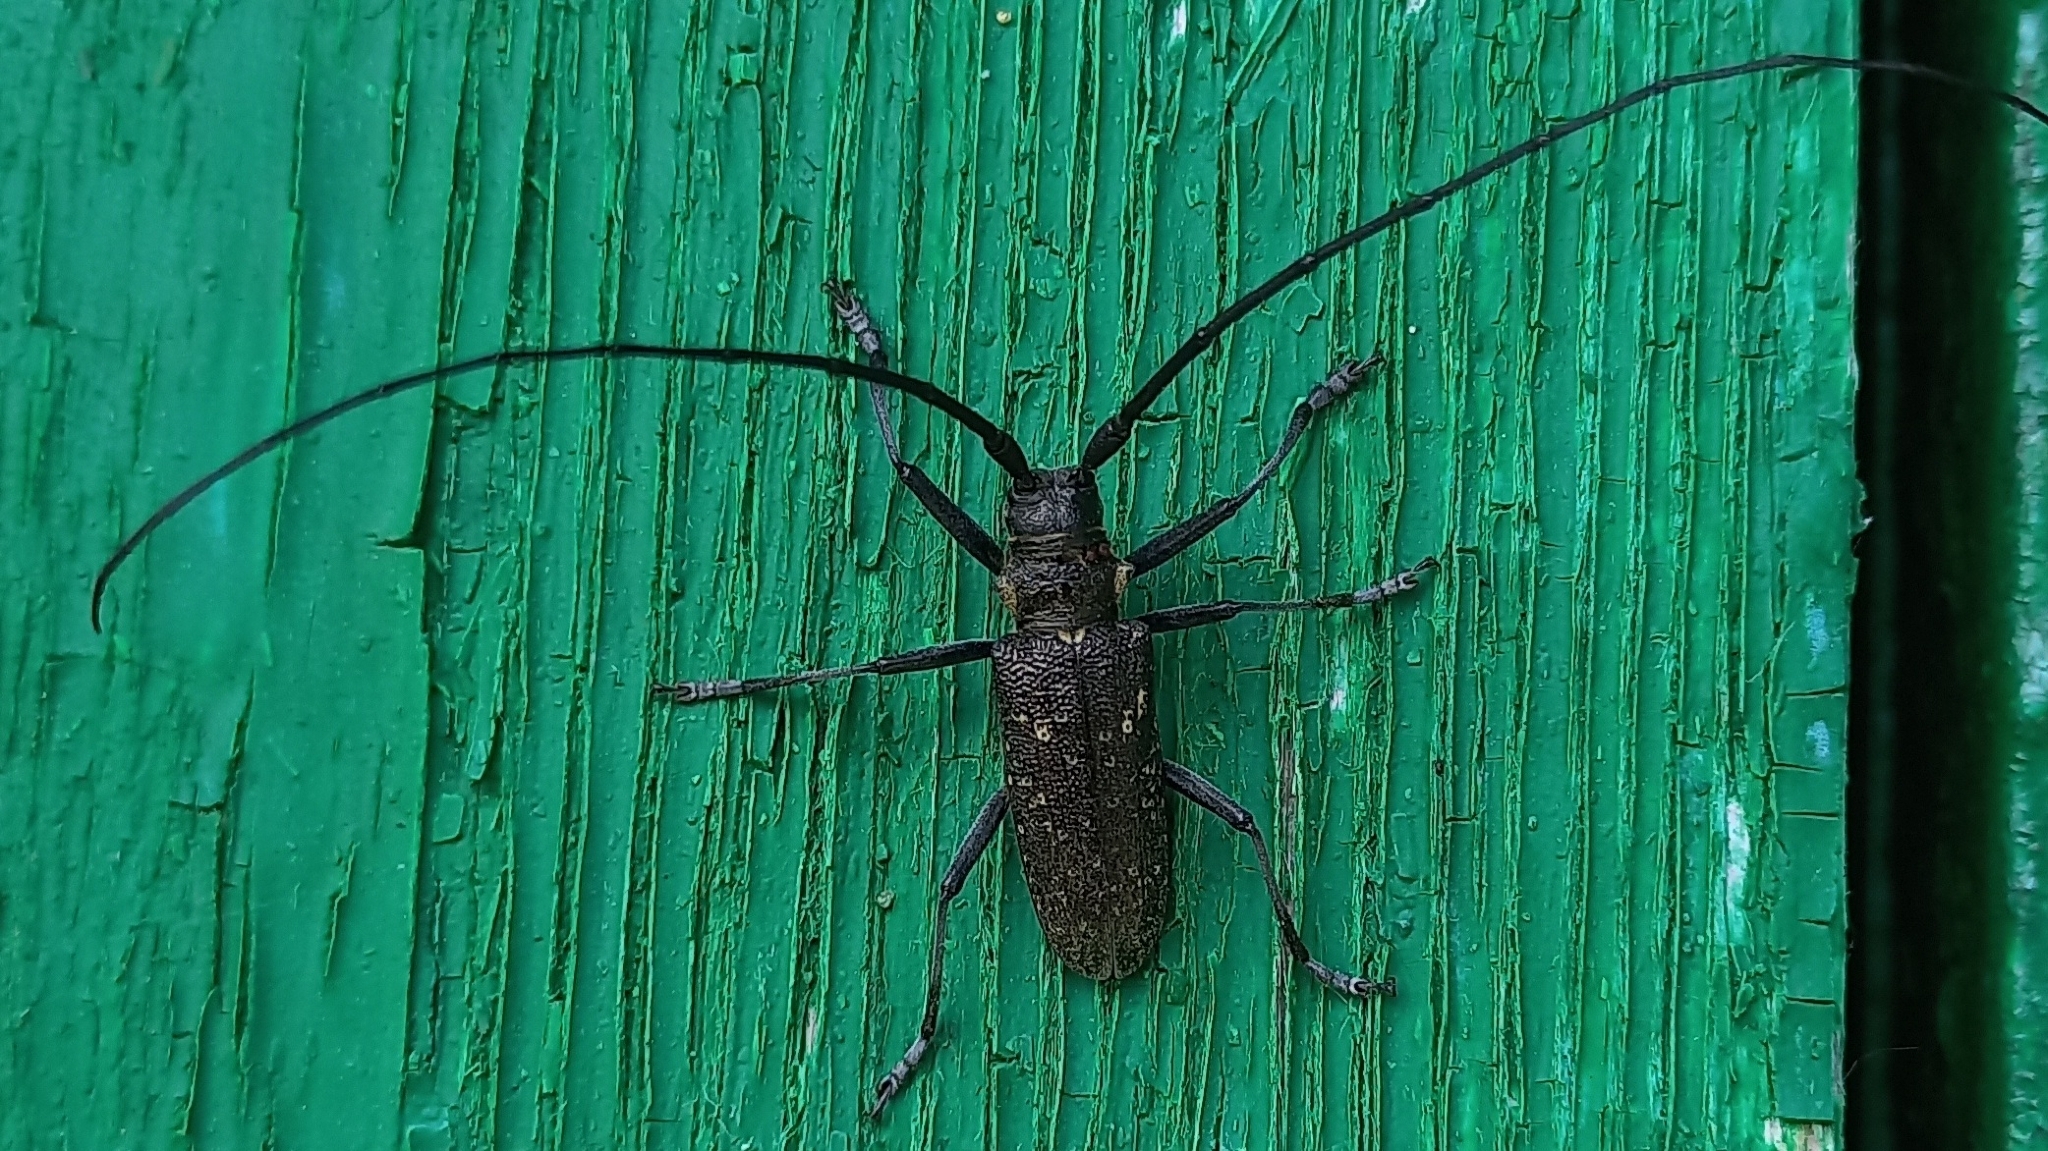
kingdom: Animalia
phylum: Arthropoda
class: Insecta
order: Coleoptera
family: Cerambycidae
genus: Monochamus
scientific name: Monochamus sutor
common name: Pine sawyer
